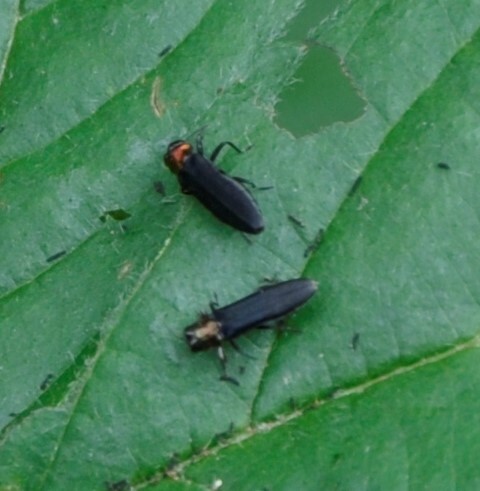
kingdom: Animalia
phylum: Arthropoda
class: Insecta
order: Coleoptera
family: Buprestidae
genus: Agrilus
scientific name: Agrilus ruficollis
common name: Red-necked cane borer beetle
